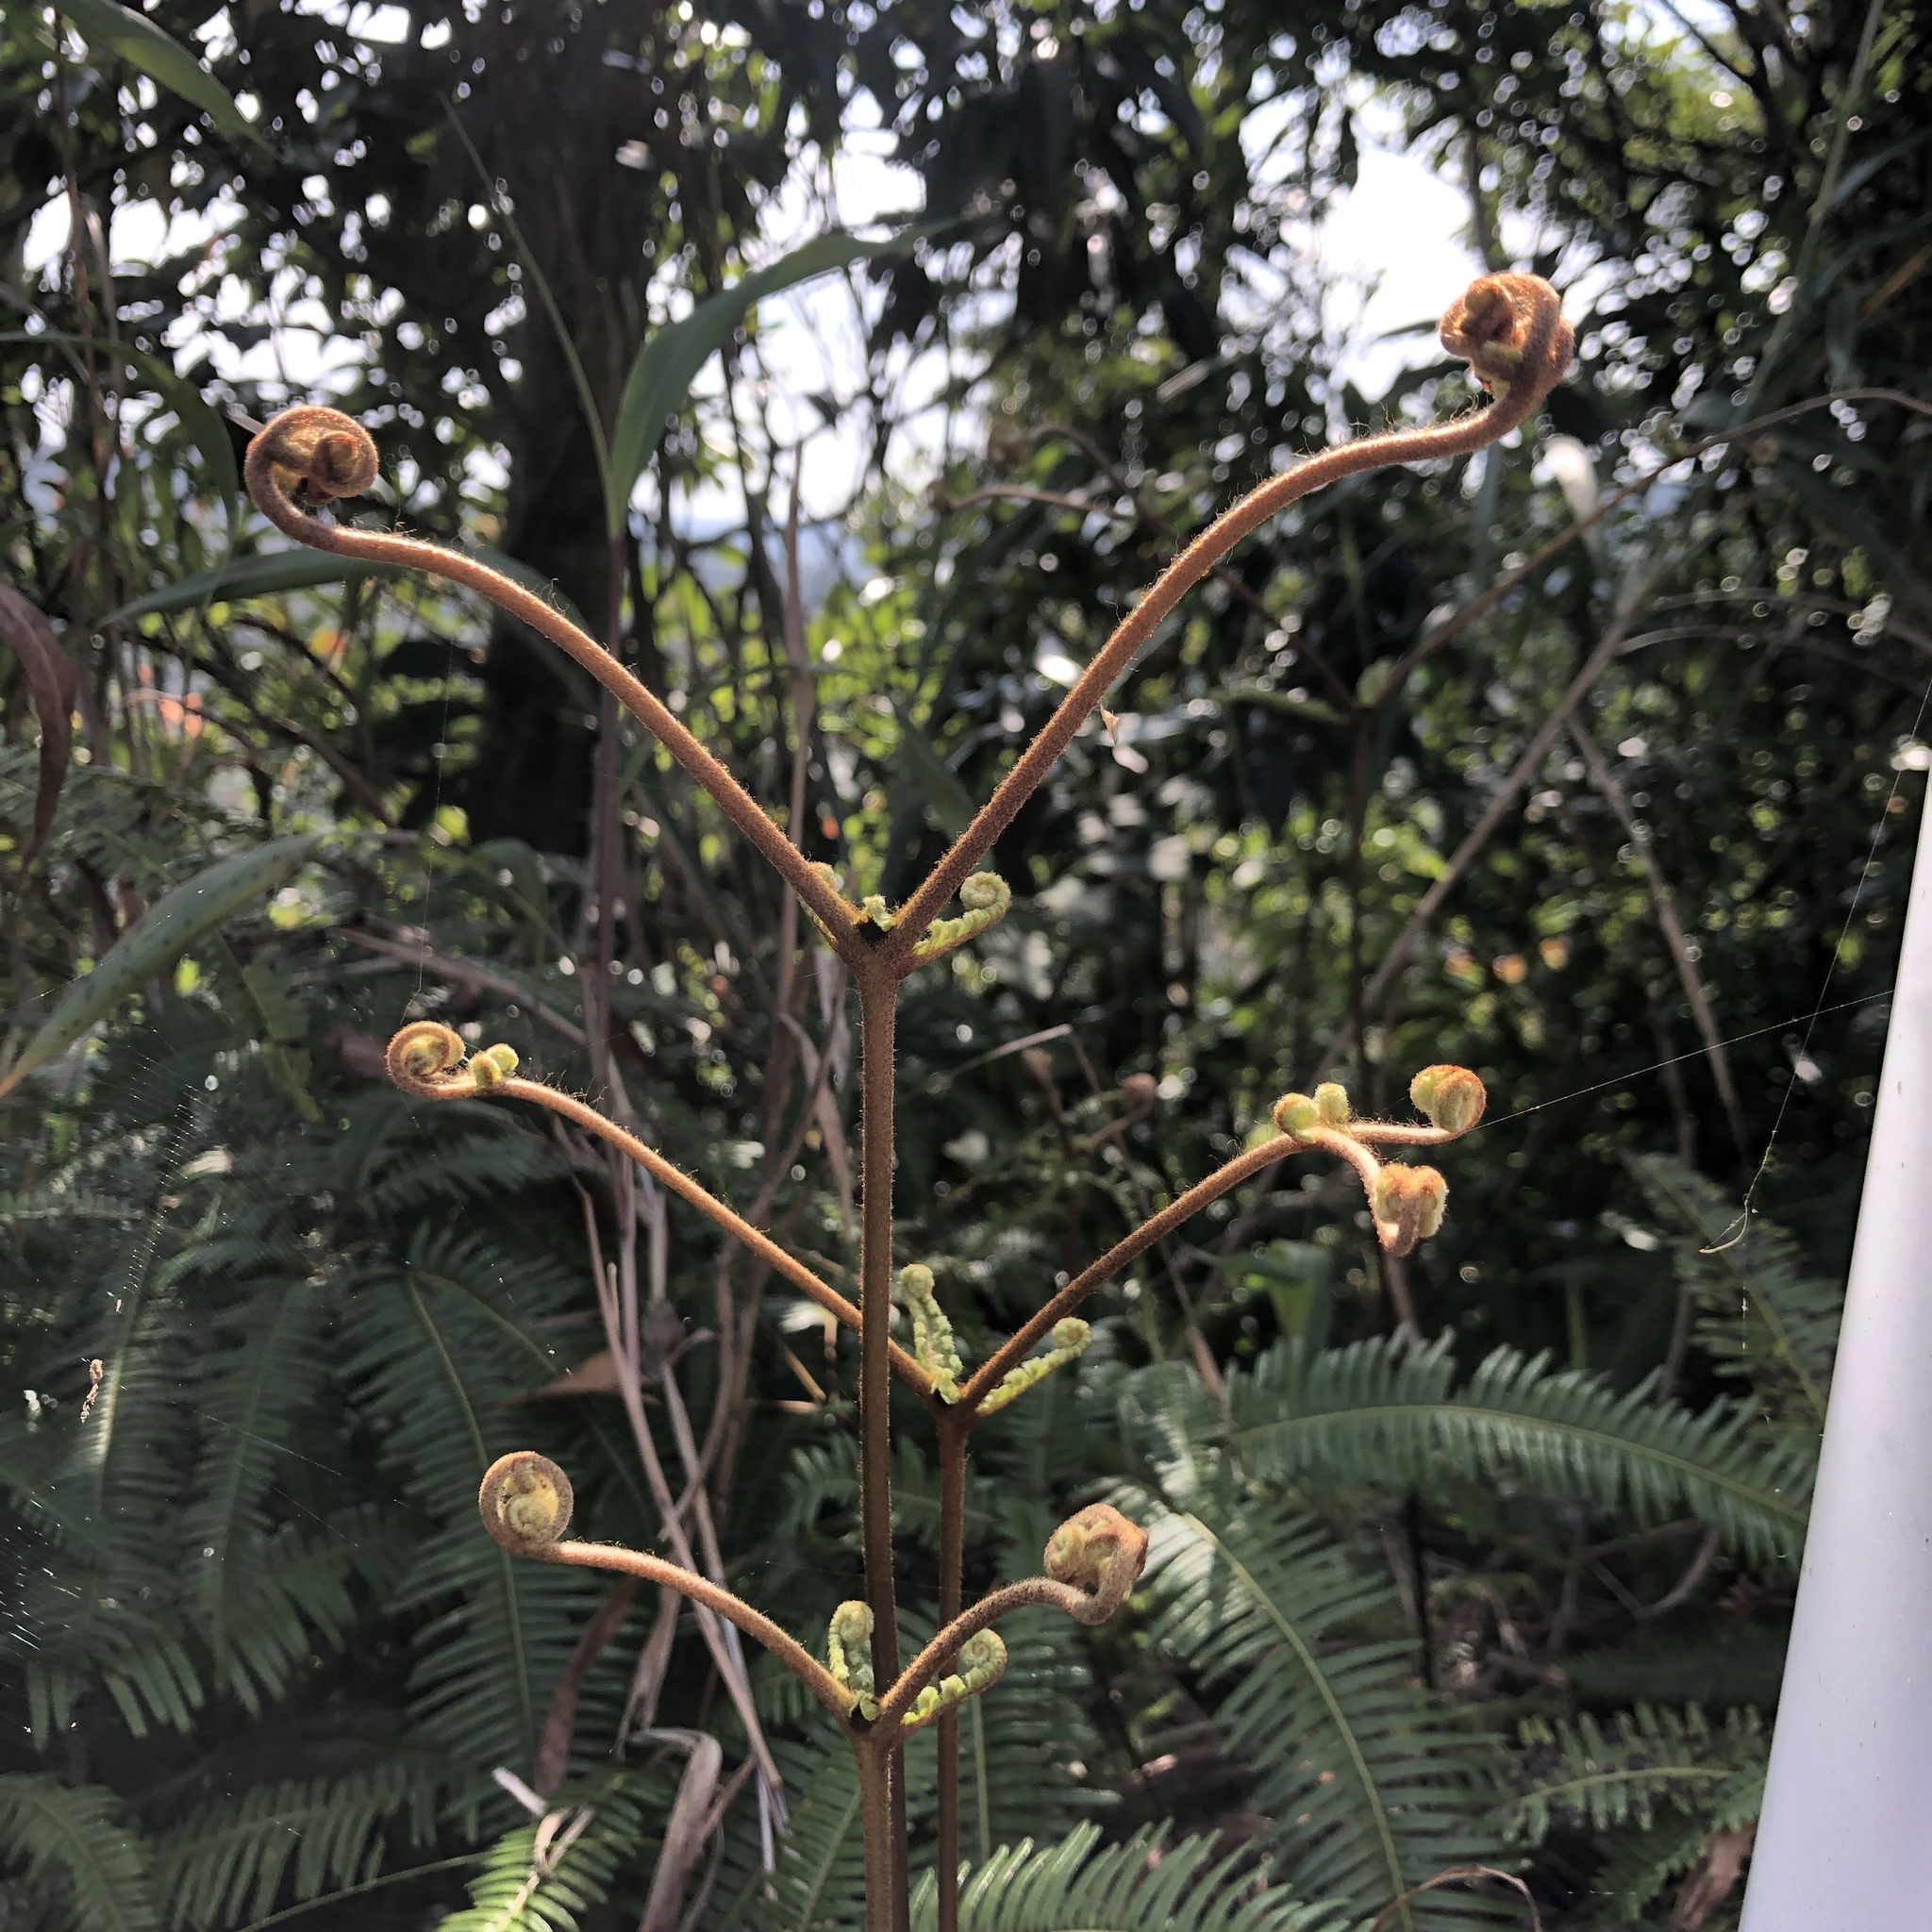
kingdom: Plantae
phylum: Tracheophyta
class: Polypodiopsida
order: Gleicheniales
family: Gleicheniaceae
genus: Dicranopteris
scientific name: Dicranopteris linearis
